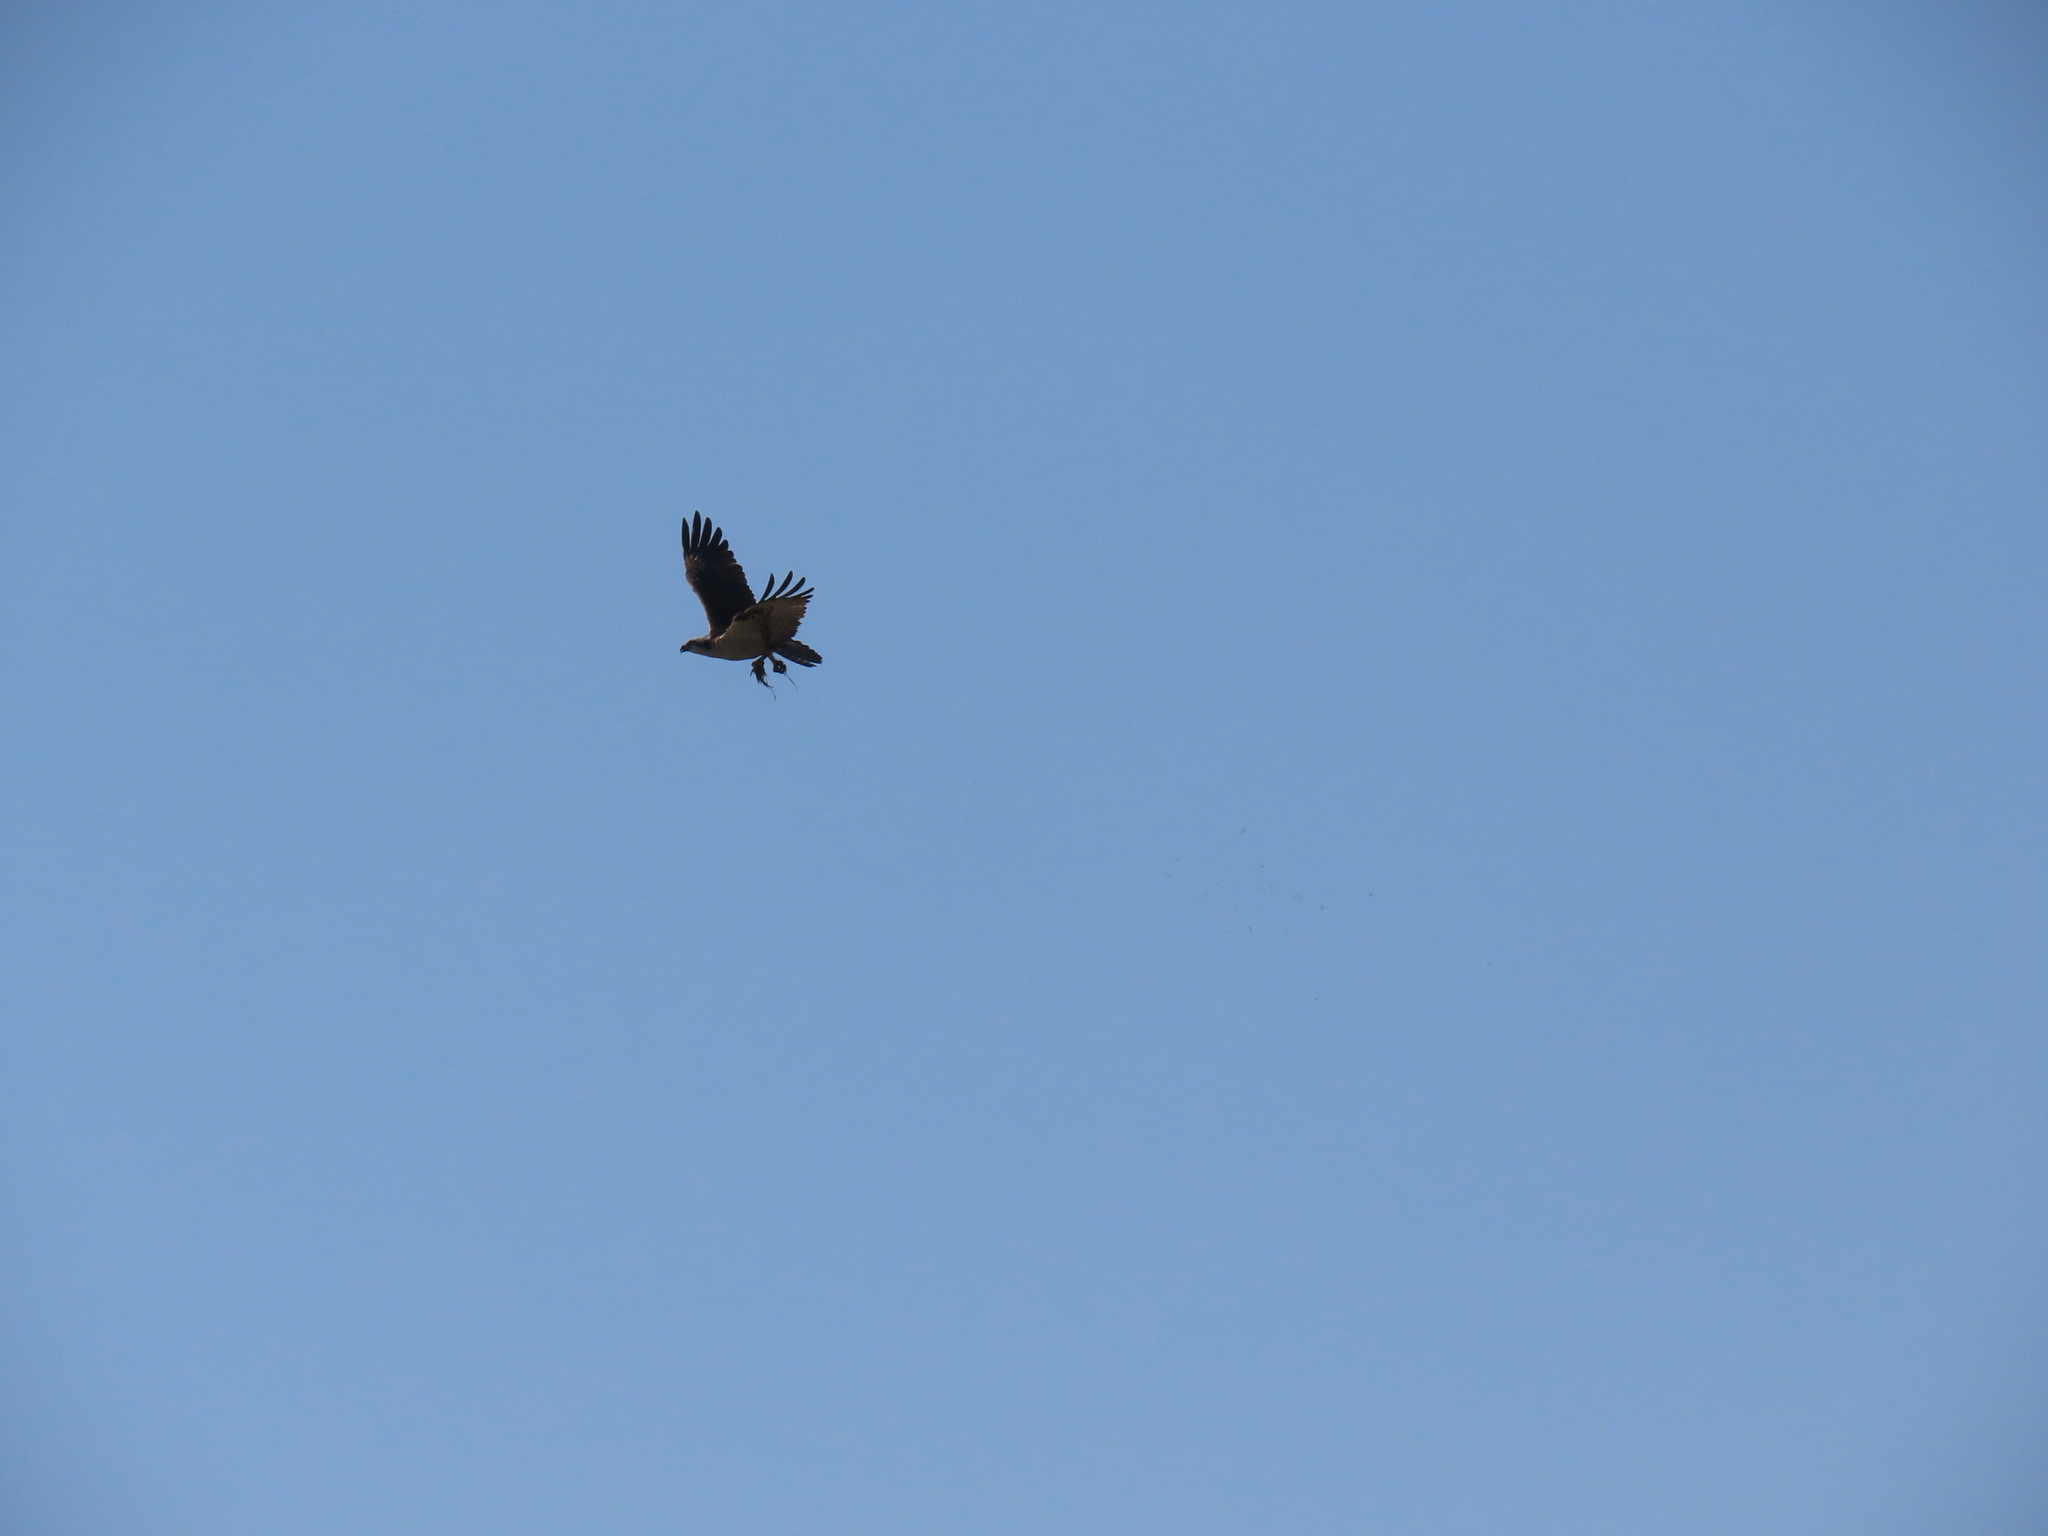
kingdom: Animalia
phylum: Chordata
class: Aves
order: Accipitriformes
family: Pandionidae
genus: Pandion
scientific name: Pandion haliaetus
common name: Osprey
